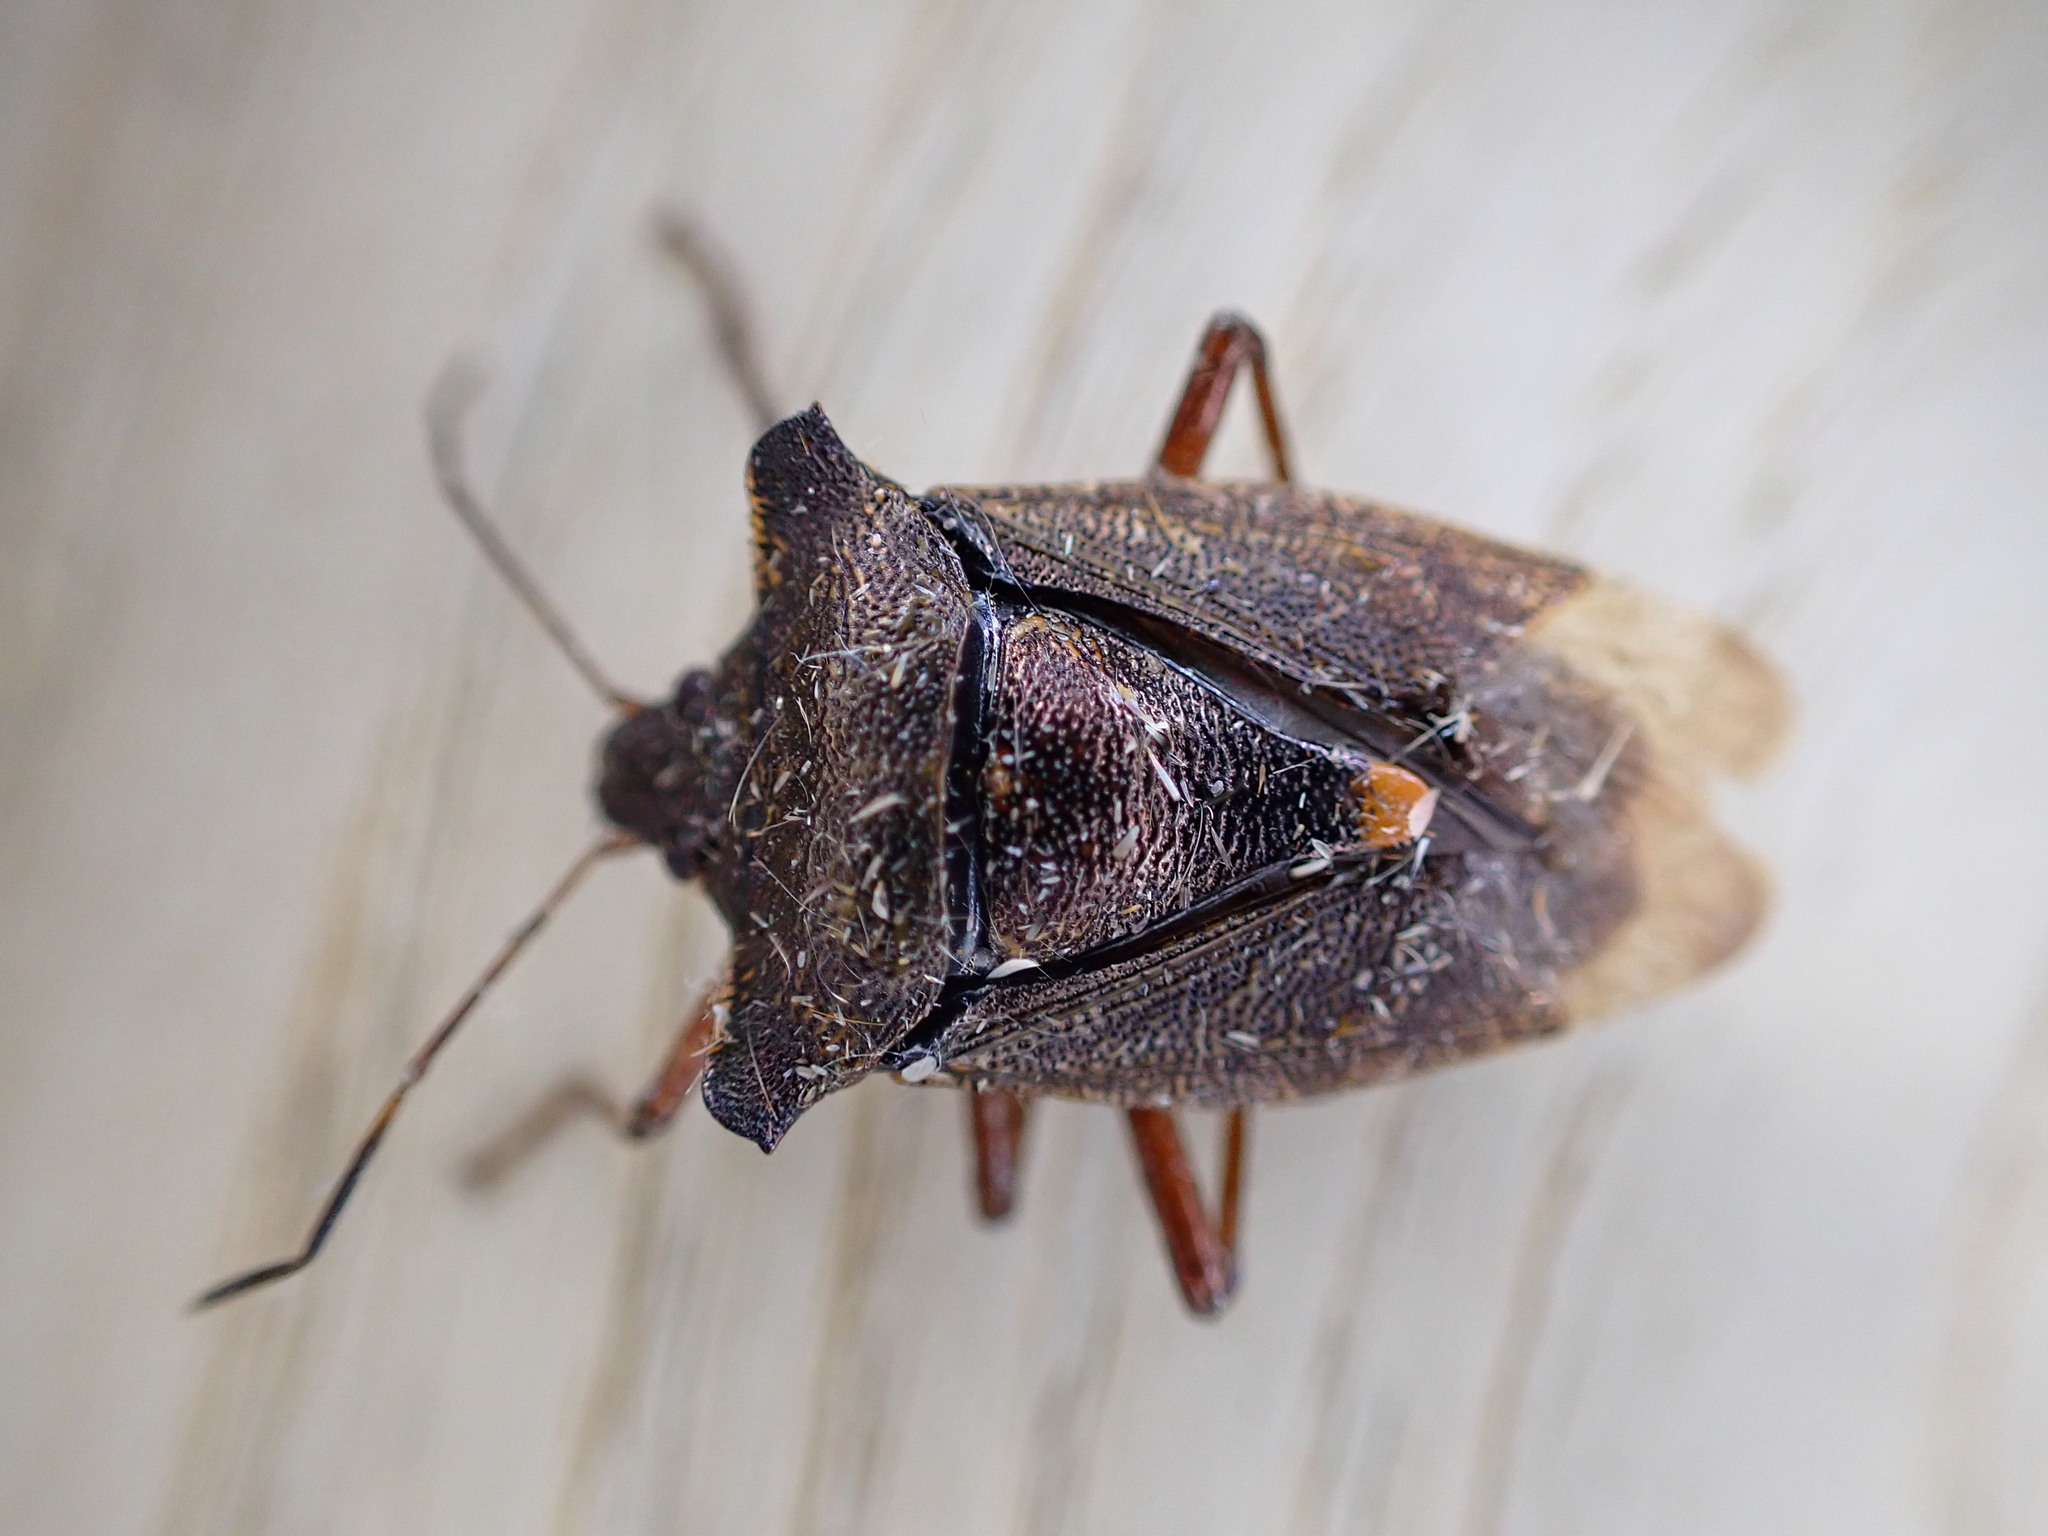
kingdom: Animalia
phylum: Arthropoda
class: Insecta
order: Hemiptera
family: Pentatomidae
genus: Pentatoma
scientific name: Pentatoma rufipes
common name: Forest bug
